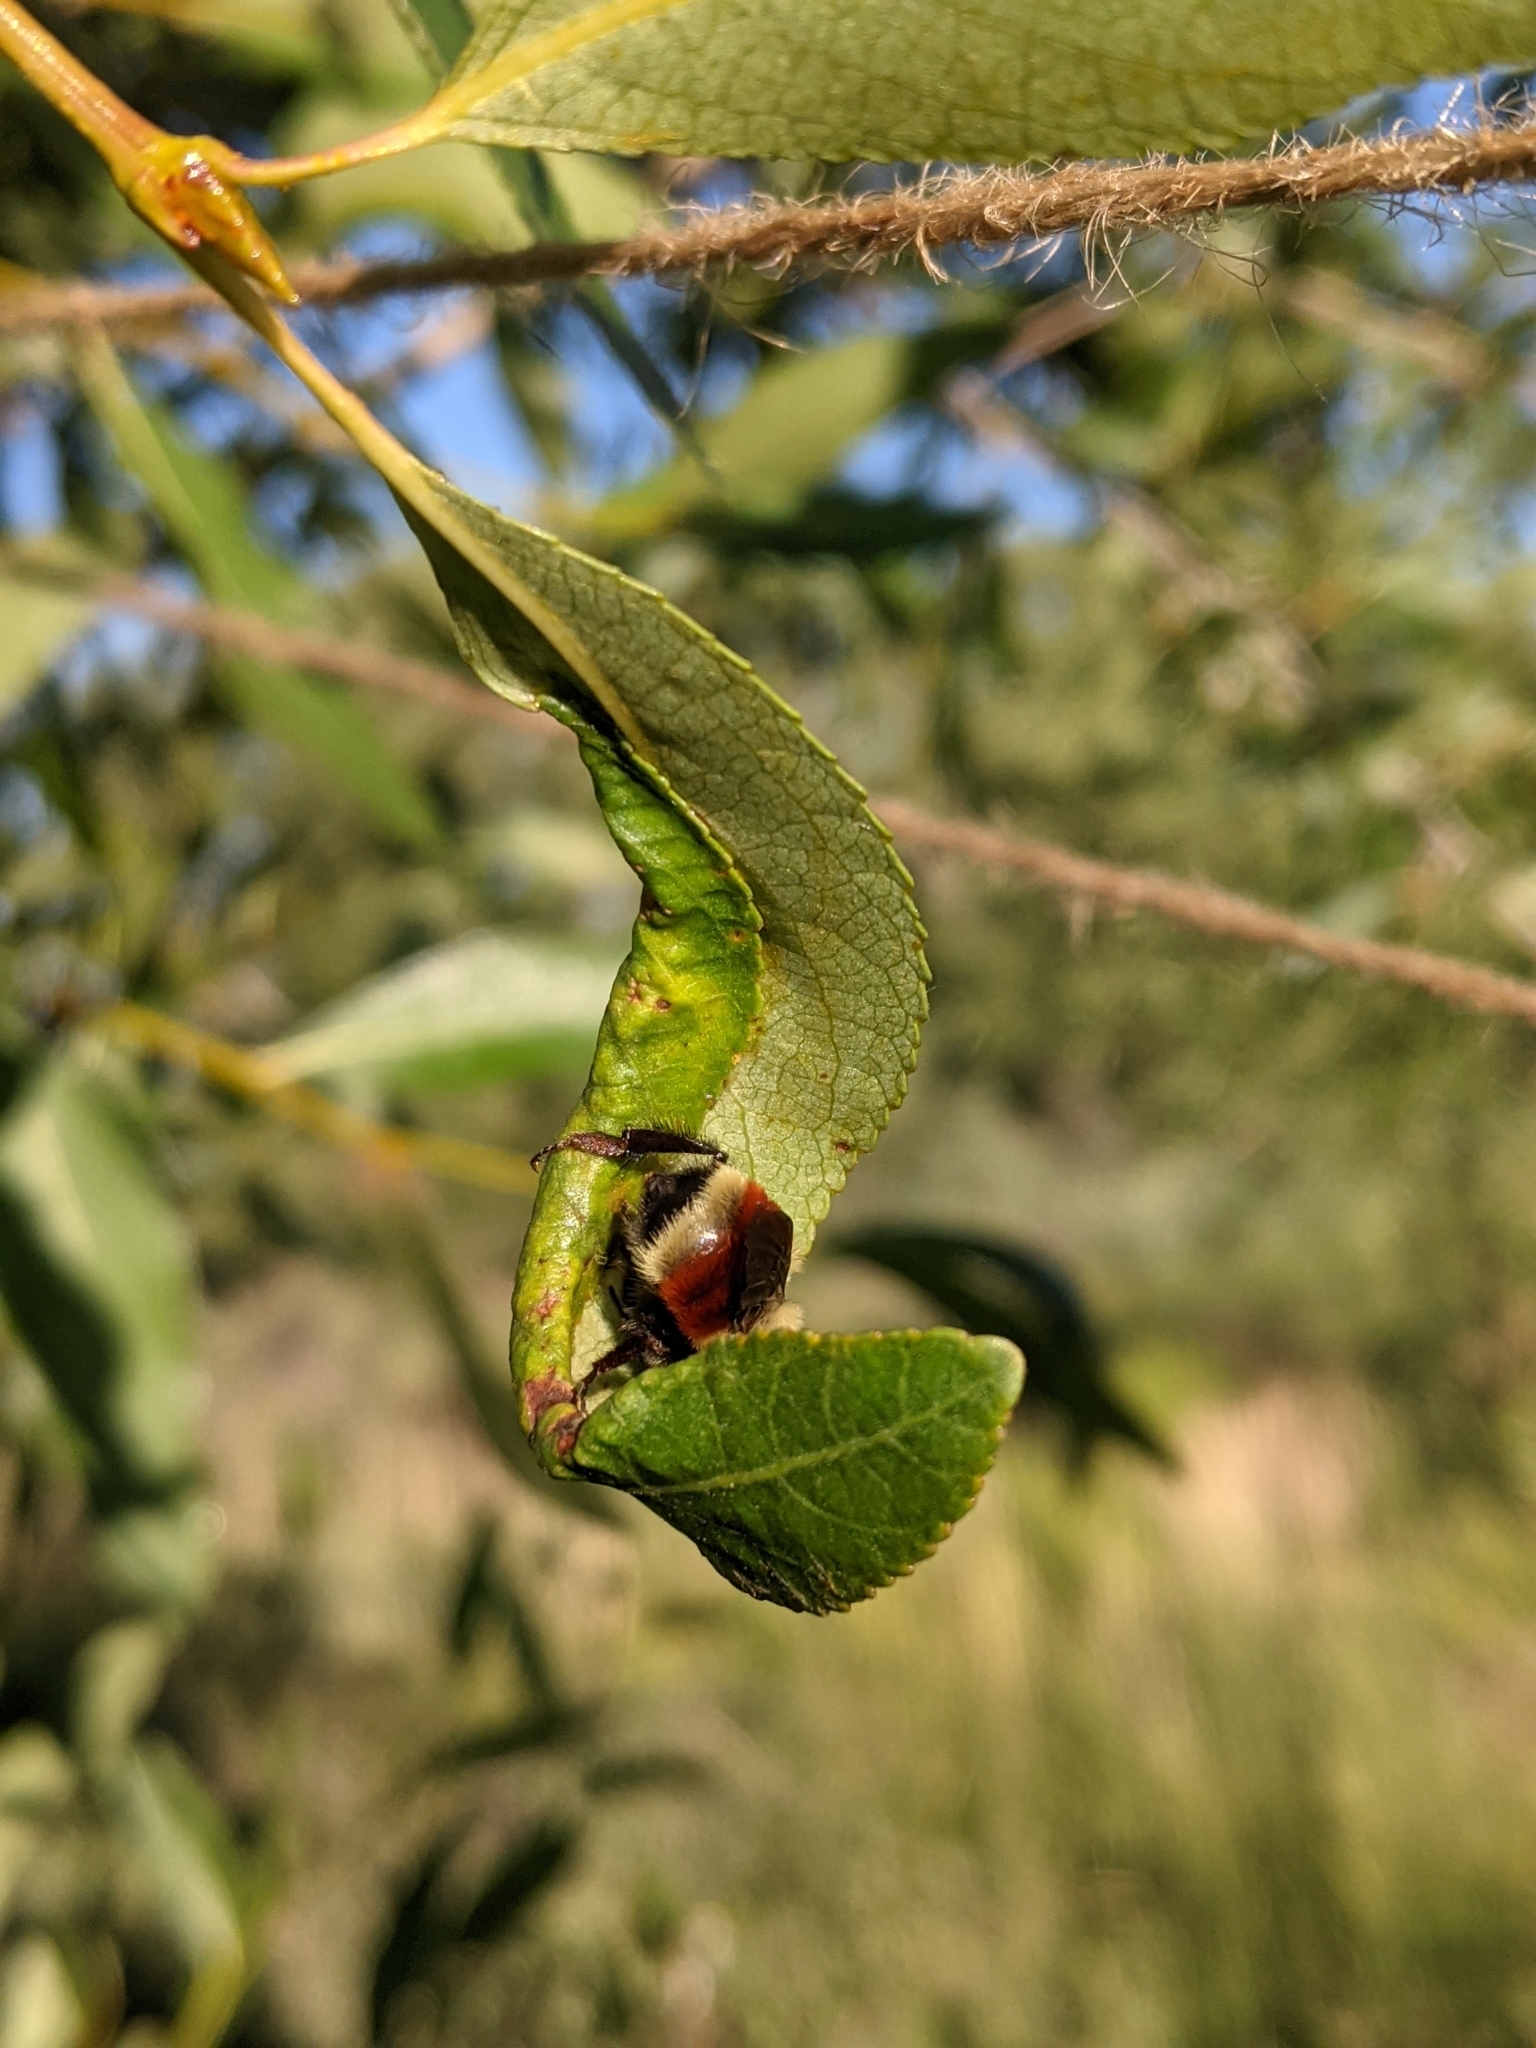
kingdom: Animalia
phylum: Arthropoda
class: Insecta
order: Hymenoptera
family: Apidae
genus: Bombus
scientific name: Bombus huntii
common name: Hunt bumble bee
